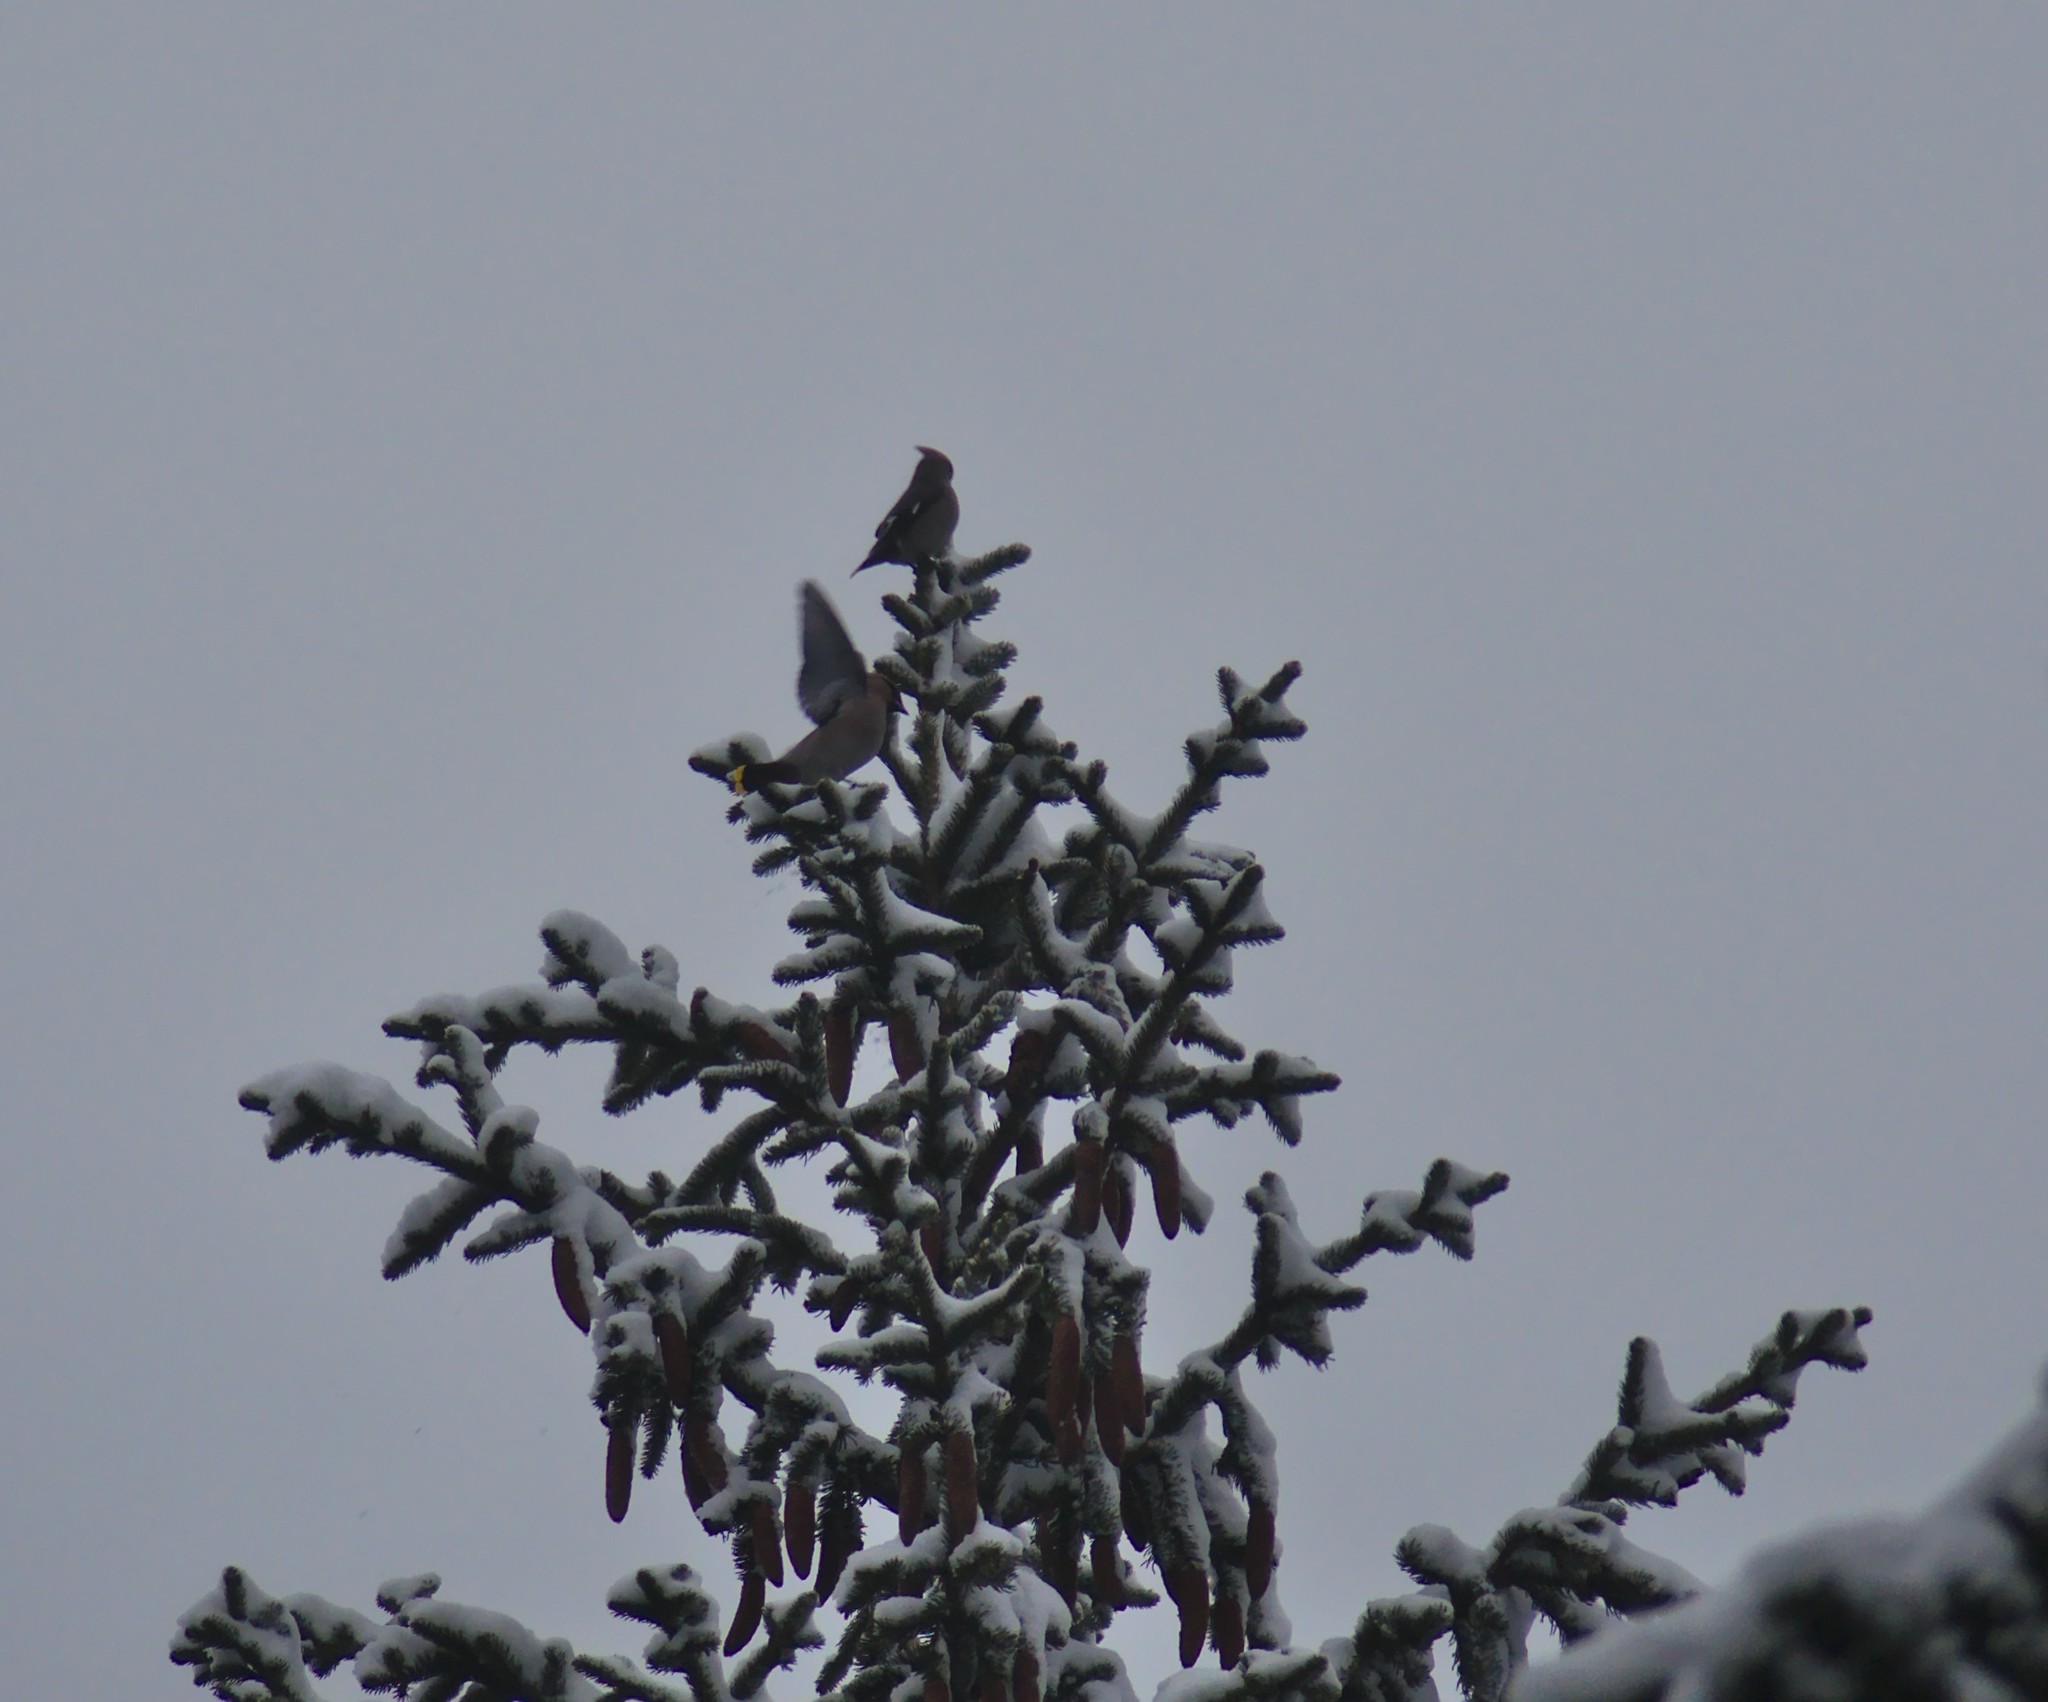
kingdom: Animalia
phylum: Chordata
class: Aves
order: Passeriformes
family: Bombycillidae
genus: Bombycilla
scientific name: Bombycilla garrulus
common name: Bohemian waxwing
